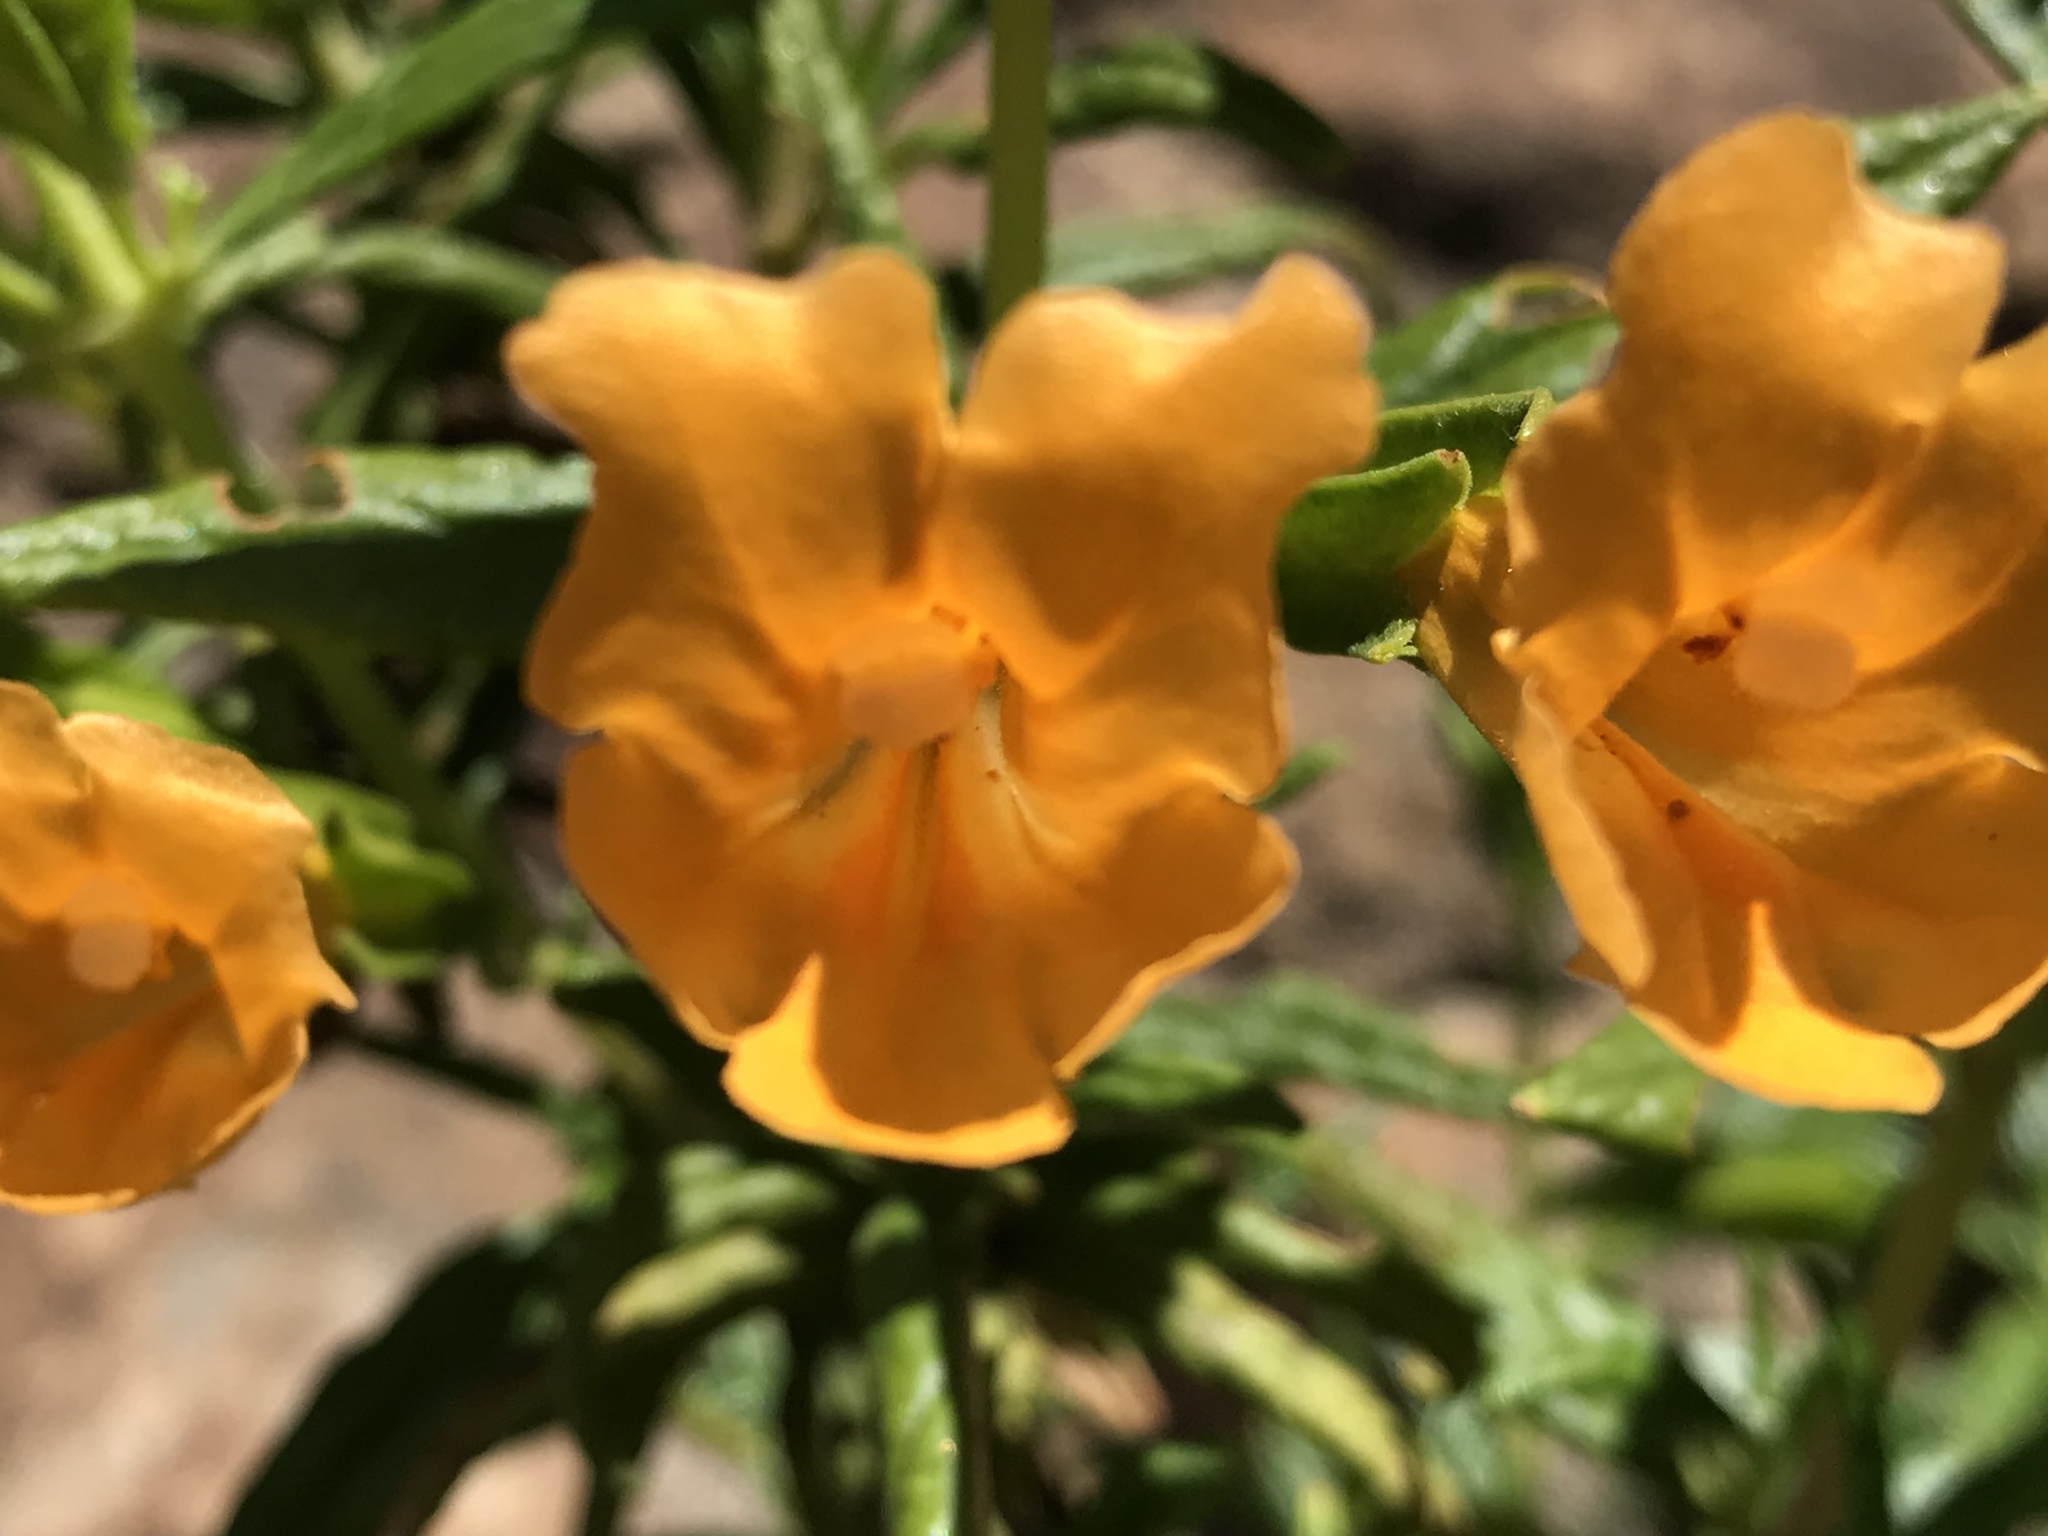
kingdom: Plantae
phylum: Tracheophyta
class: Magnoliopsida
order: Lamiales
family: Phrymaceae
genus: Diplacus
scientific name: Diplacus aurantiacus
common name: Bush monkey-flower
